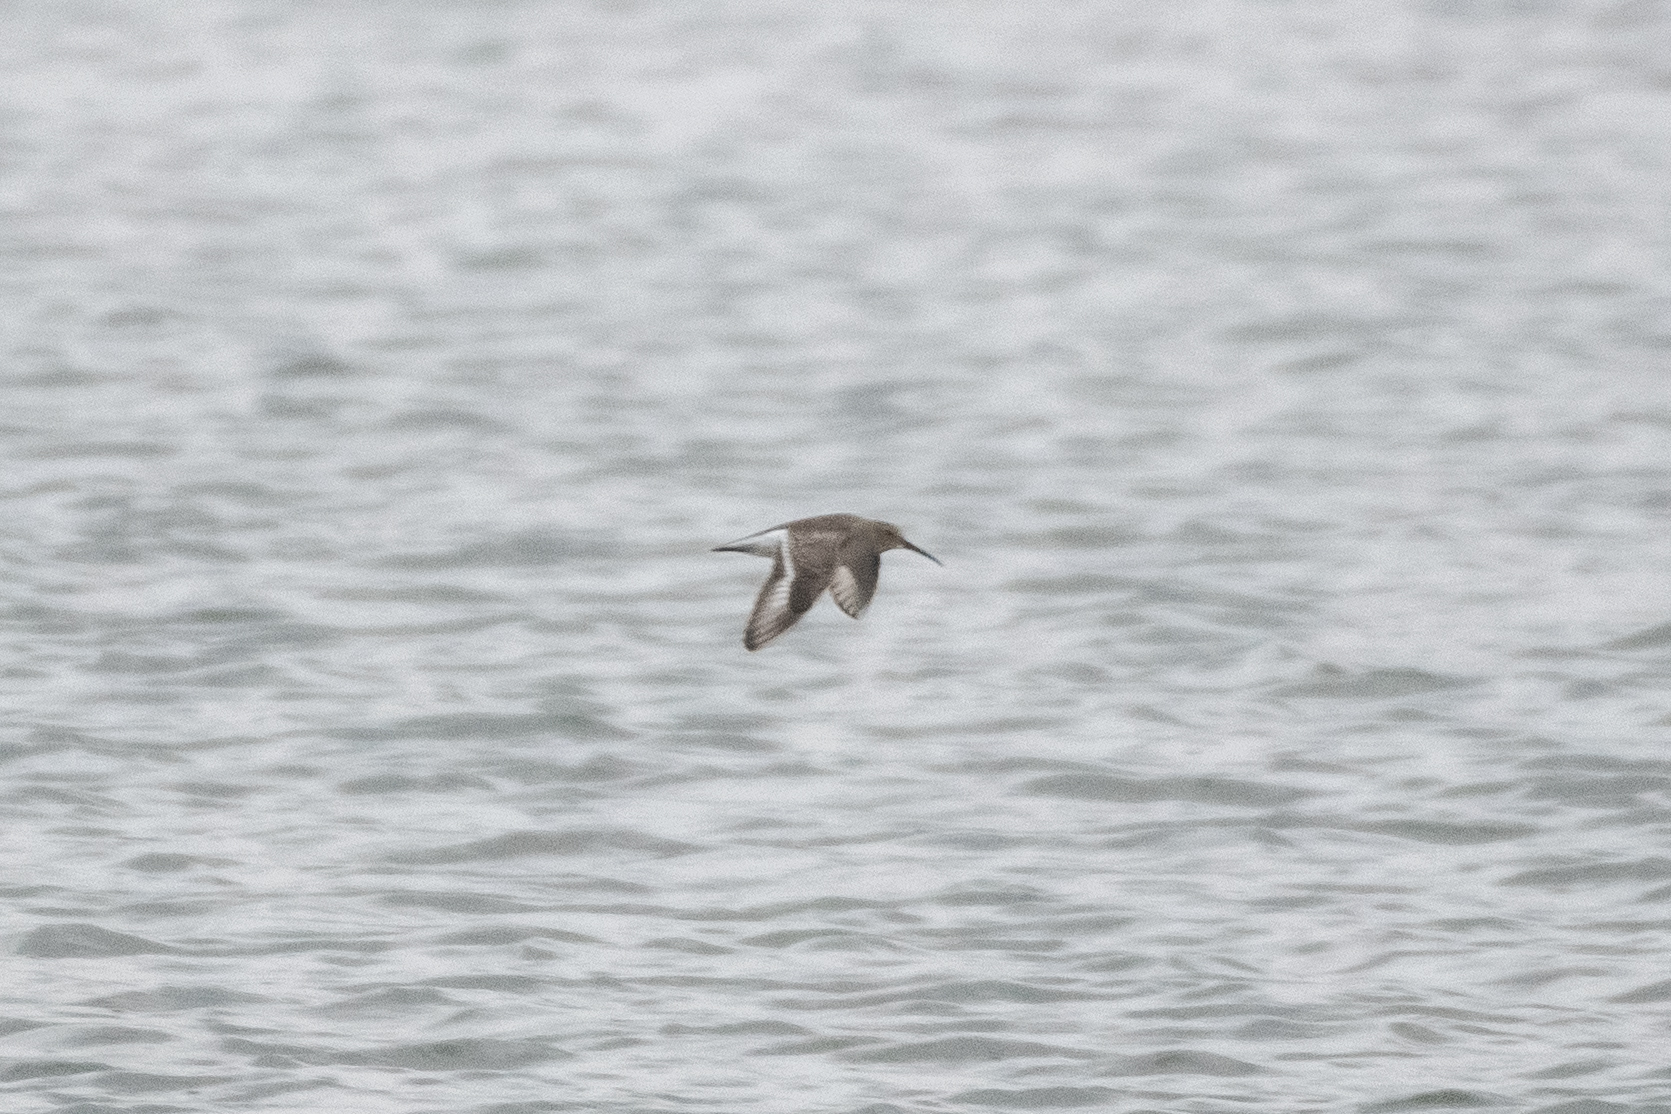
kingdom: Animalia
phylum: Chordata
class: Aves
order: Charadriiformes
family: Scolopacidae
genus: Calidris
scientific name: Calidris alpina
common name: Dunlin
